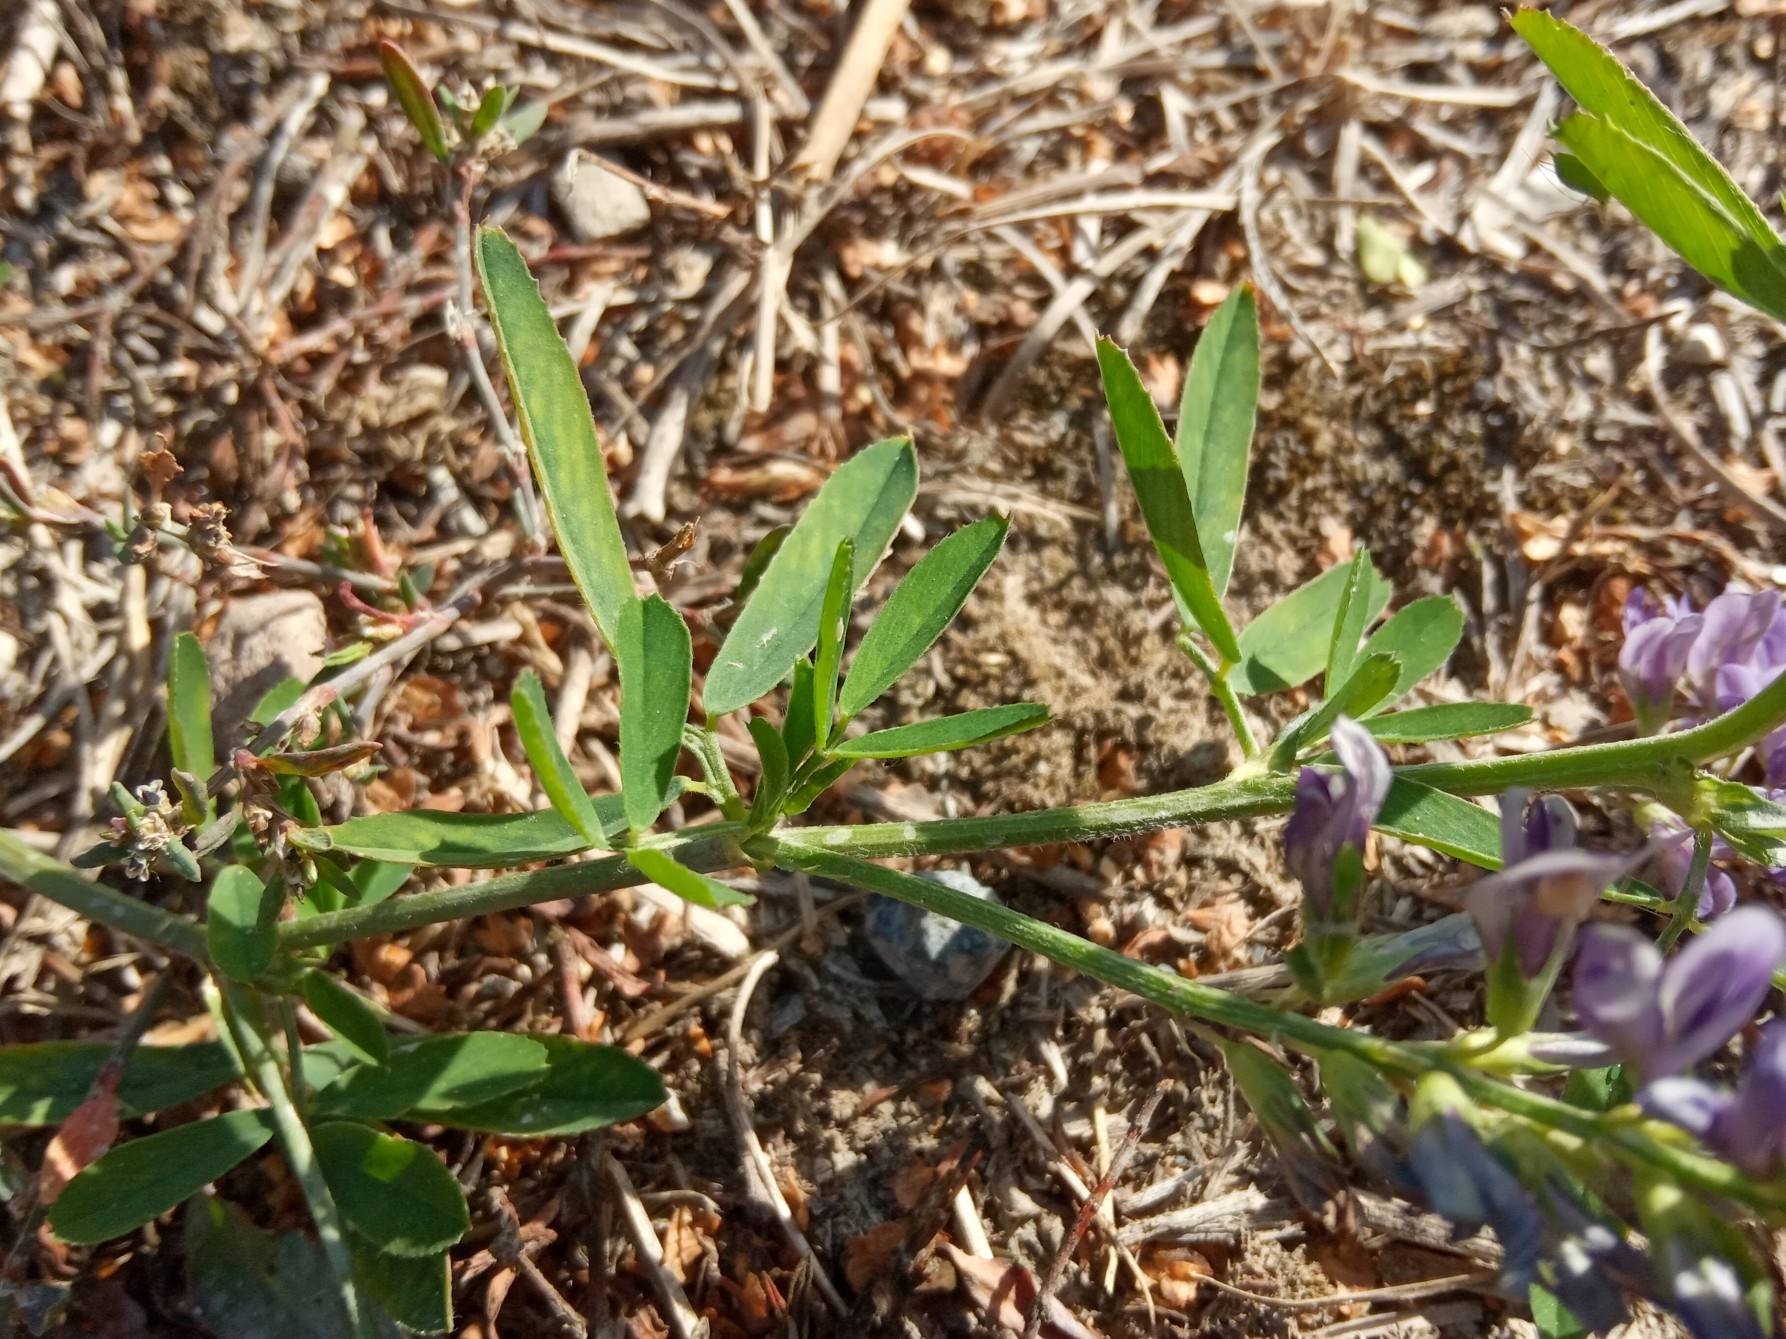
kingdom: Plantae
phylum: Tracheophyta
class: Magnoliopsida
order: Fabales
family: Fabaceae
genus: Medicago
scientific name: Medicago sativa
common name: Alfalfa
